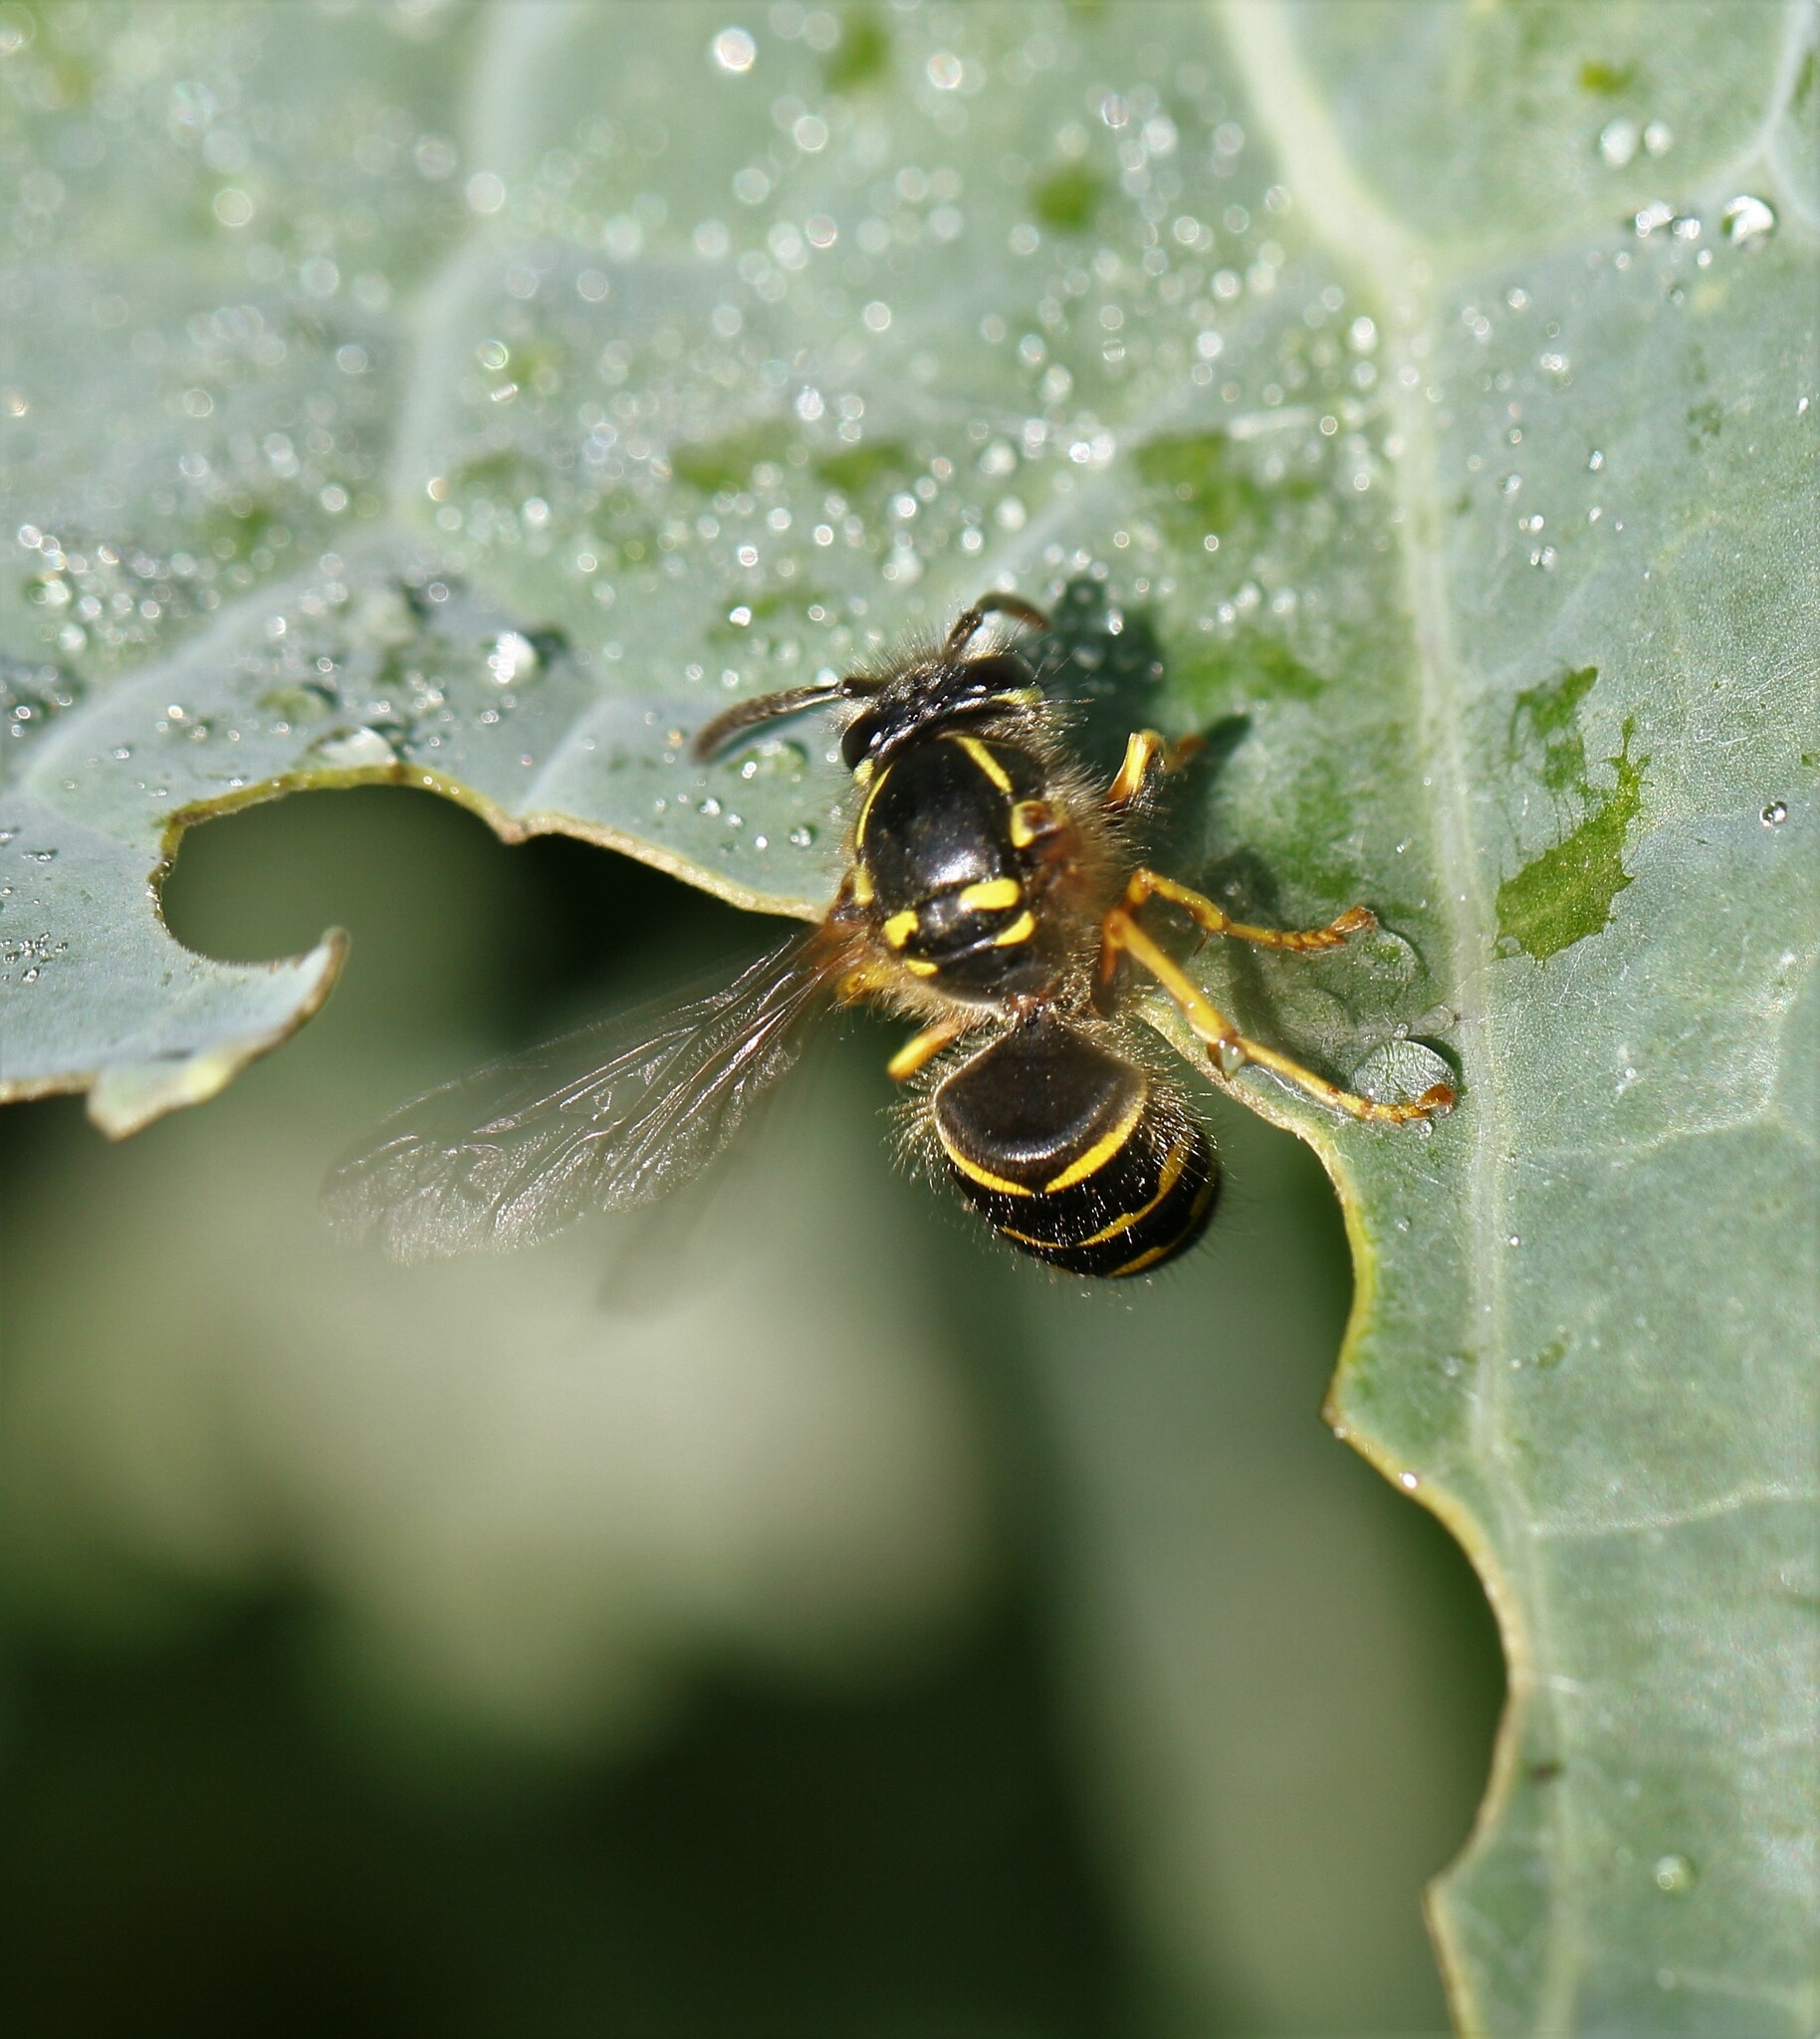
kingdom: Animalia
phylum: Arthropoda
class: Insecta
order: Hymenoptera
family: Vespidae
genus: Dolichovespula
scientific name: Dolichovespula arenaria
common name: Aerial yellowjacket
